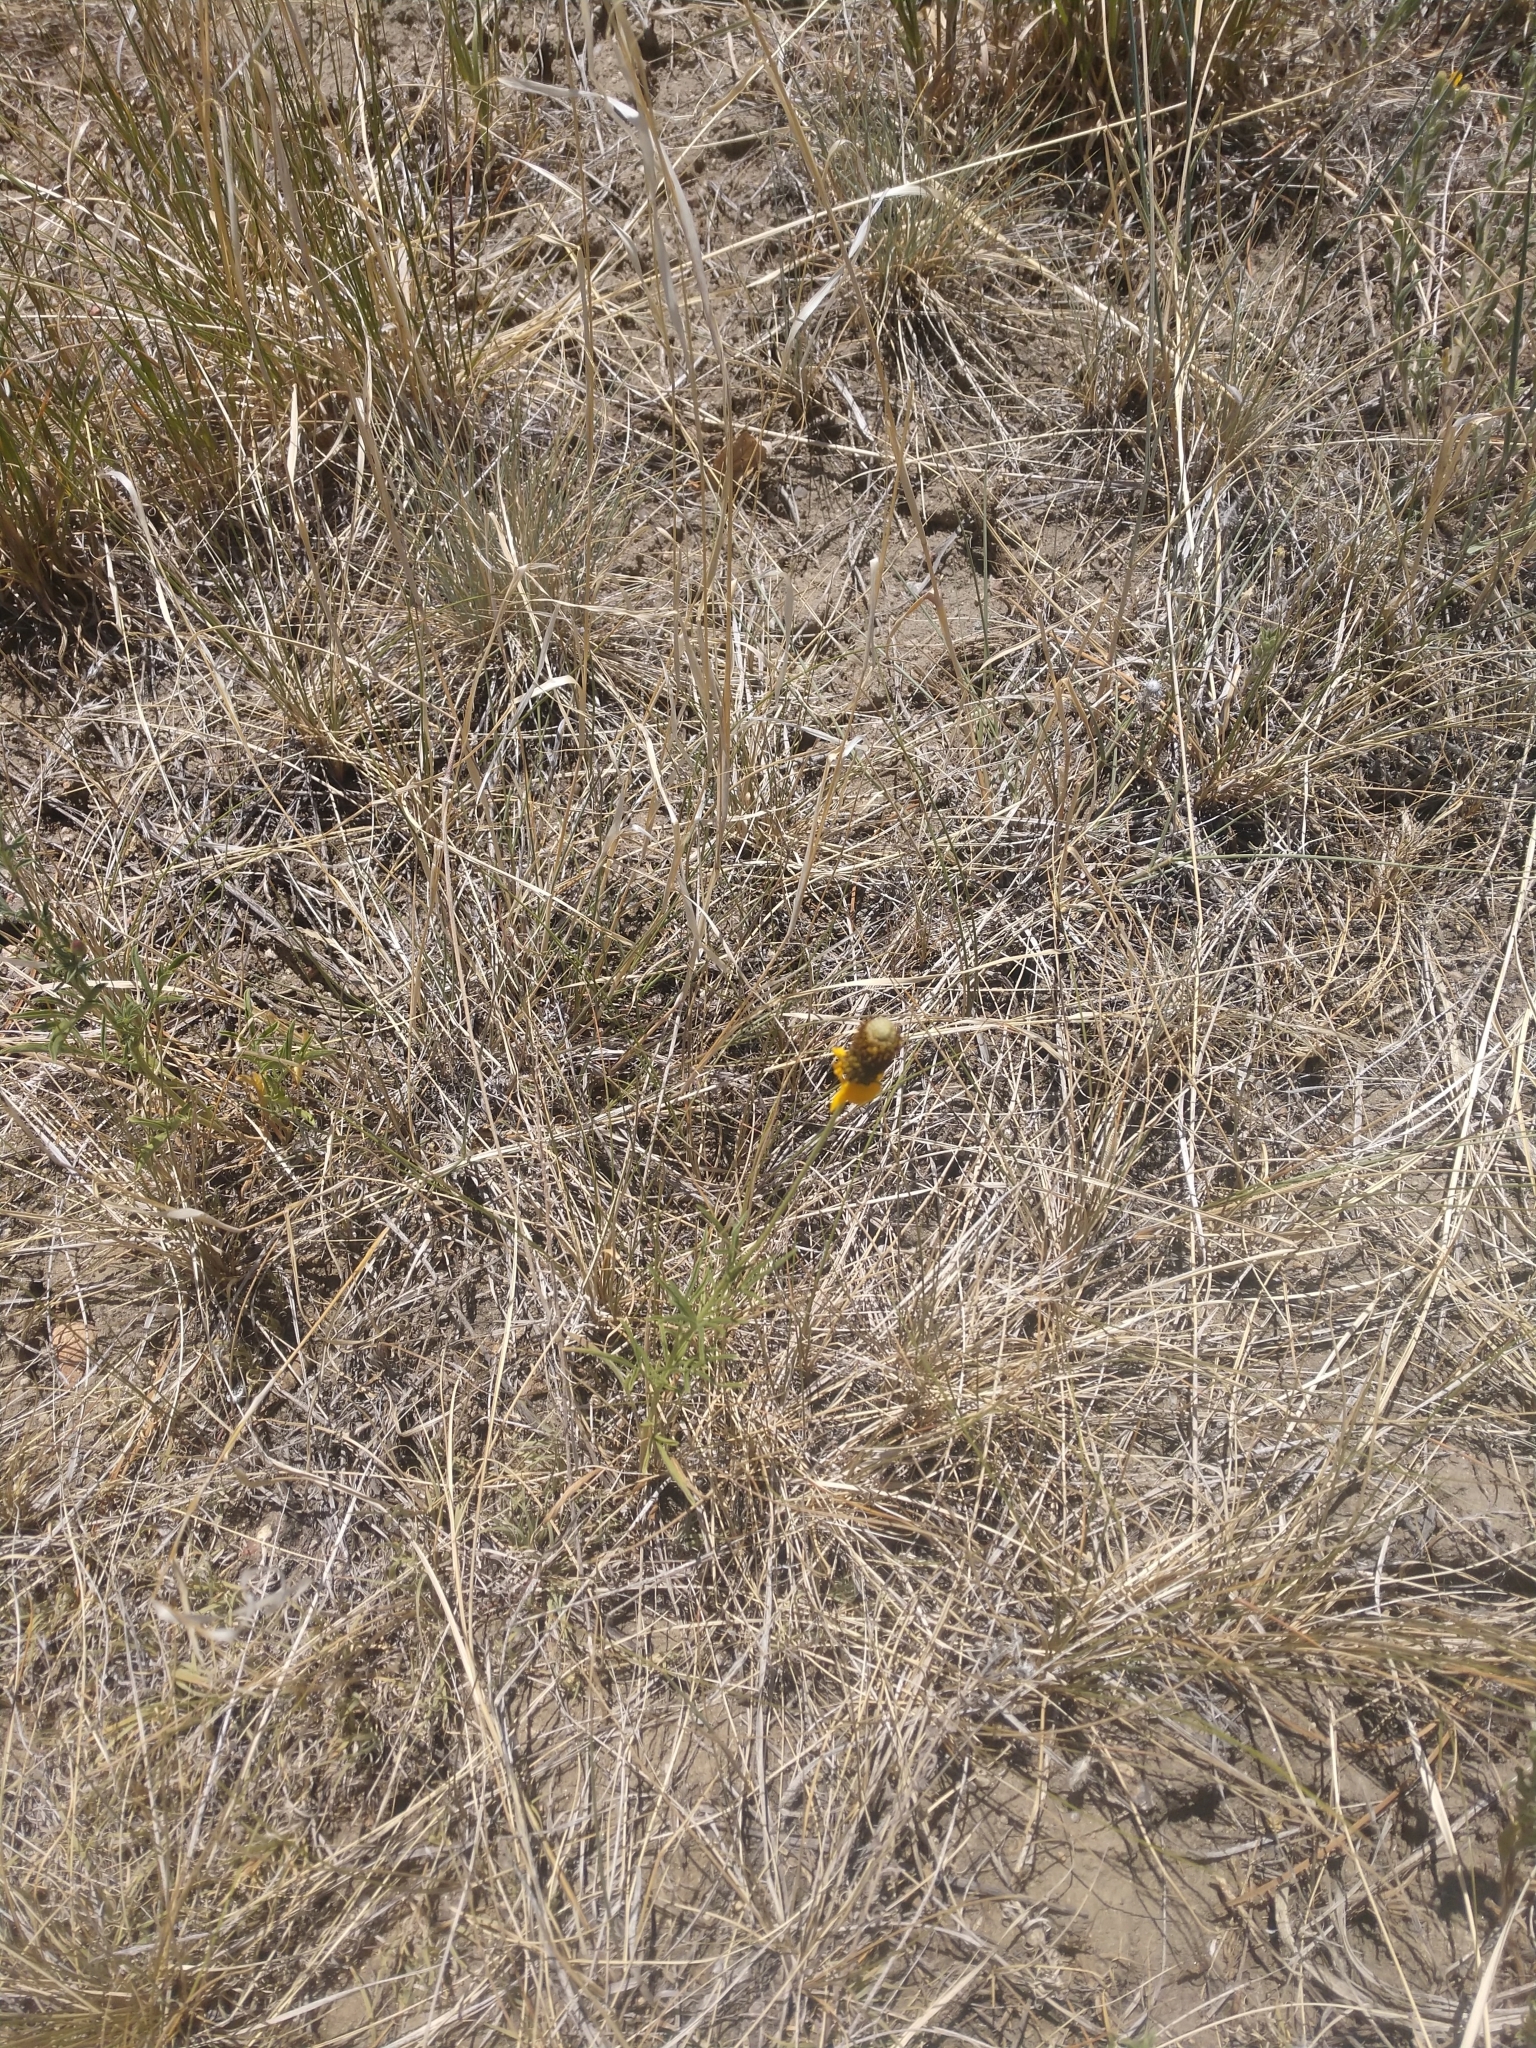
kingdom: Plantae
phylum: Tracheophyta
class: Magnoliopsida
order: Asterales
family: Asteraceae
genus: Ratibida
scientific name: Ratibida columnifera
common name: Prairie coneflower
